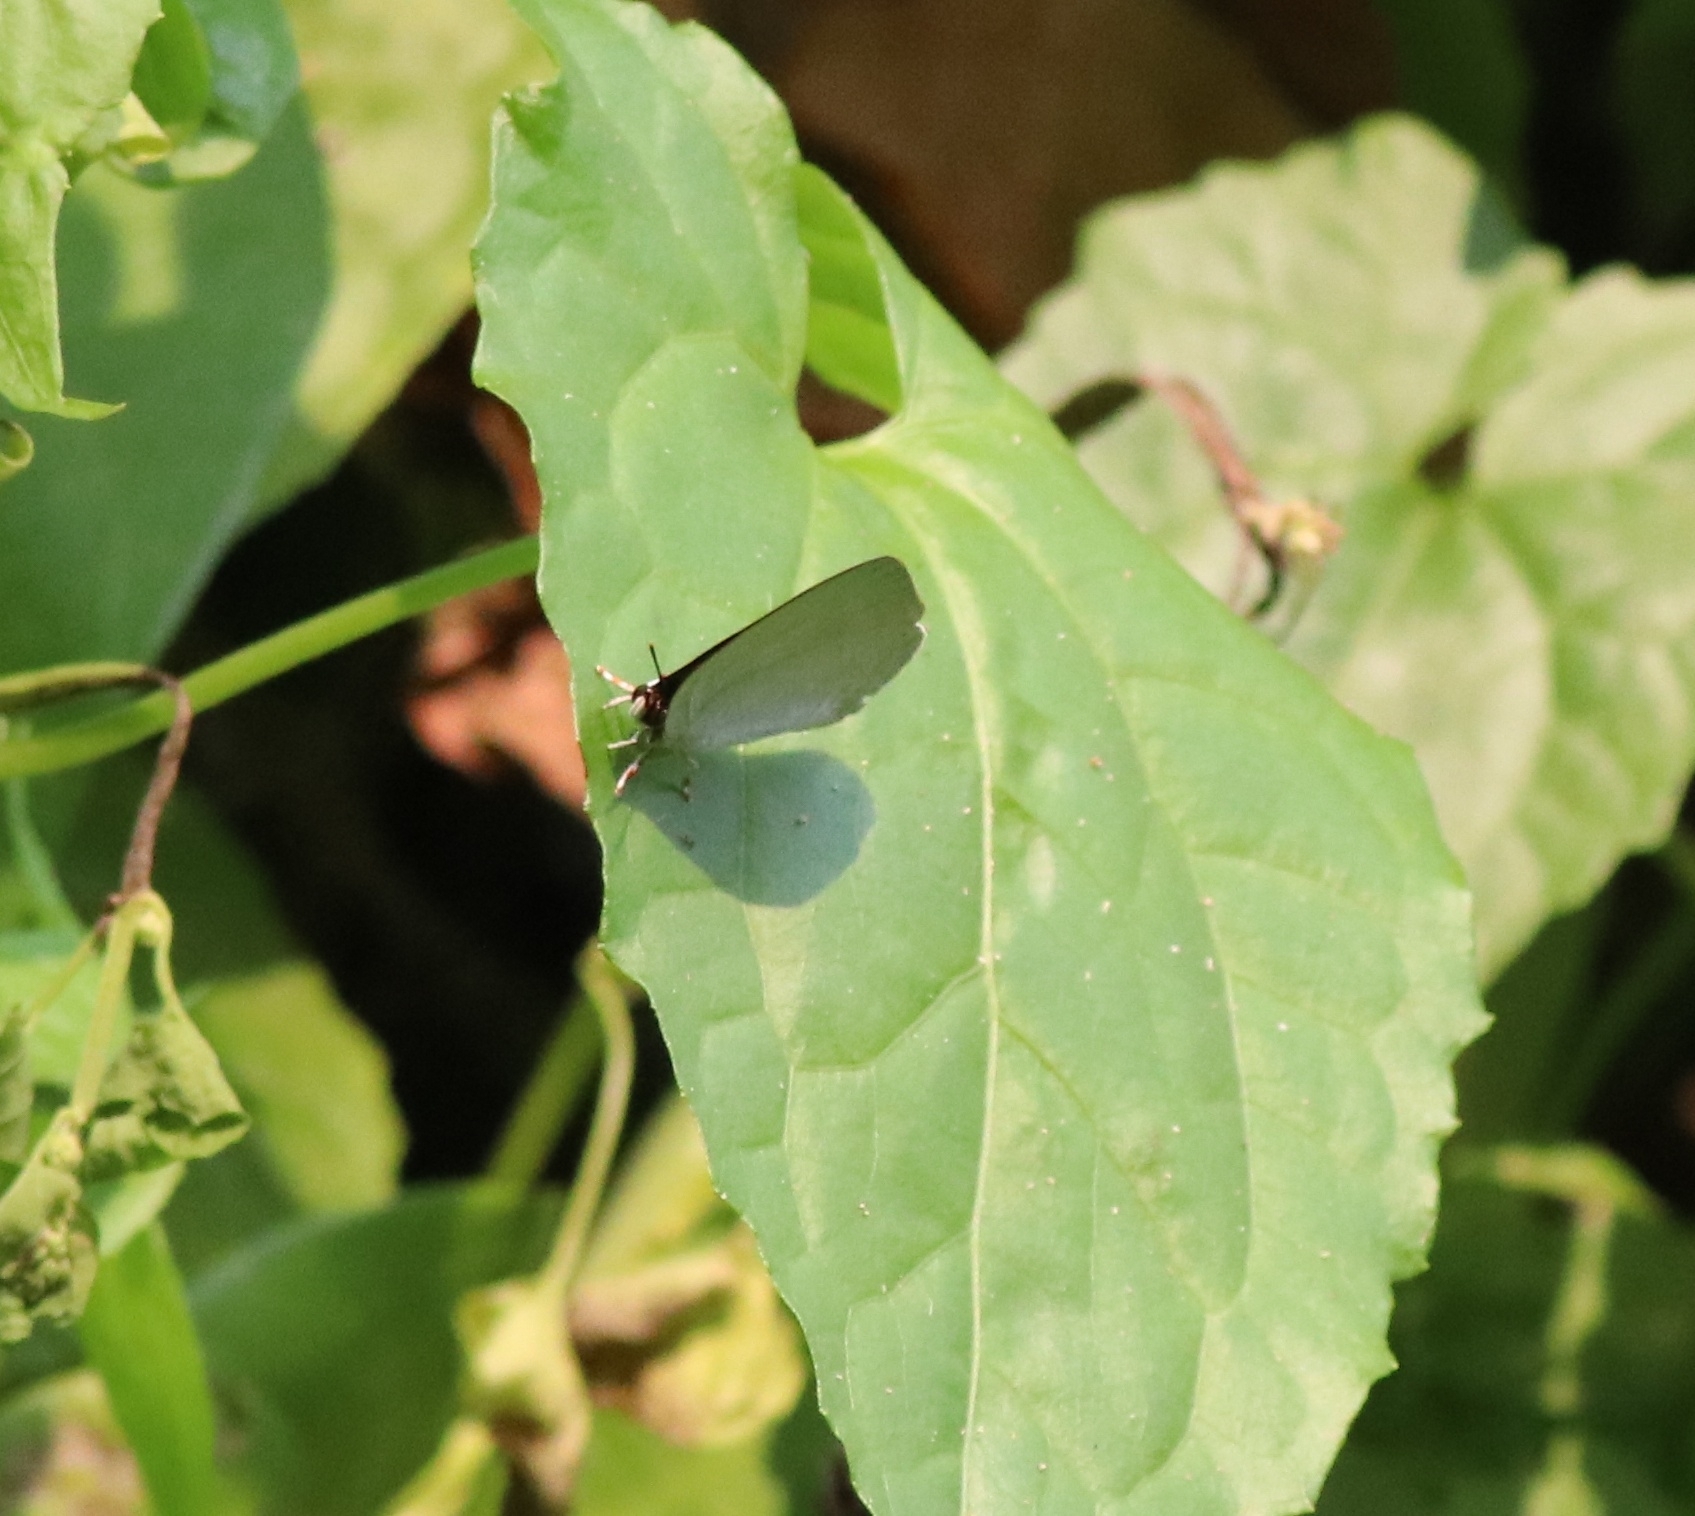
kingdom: Animalia
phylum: Arthropoda
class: Insecta
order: Lepidoptera
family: Lycaenidae
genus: Curetis
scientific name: Curetis thetis
